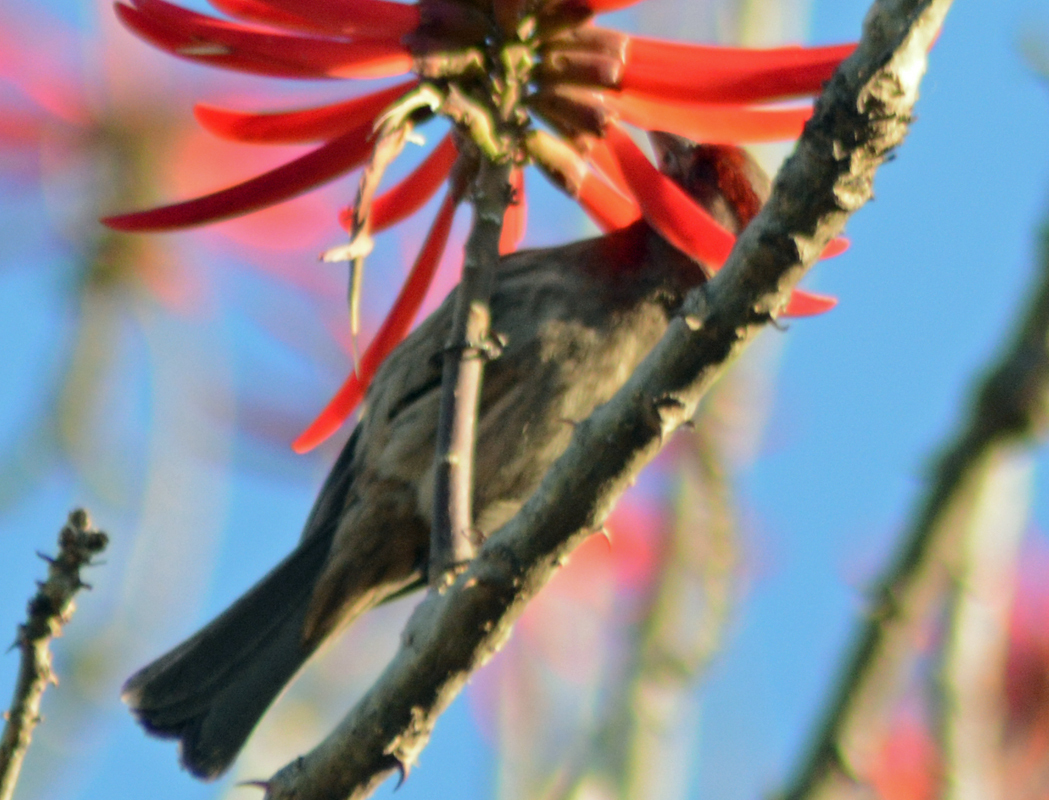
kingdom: Animalia
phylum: Chordata
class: Aves
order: Passeriformes
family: Fringillidae
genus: Haemorhous
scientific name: Haemorhous mexicanus
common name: House finch
